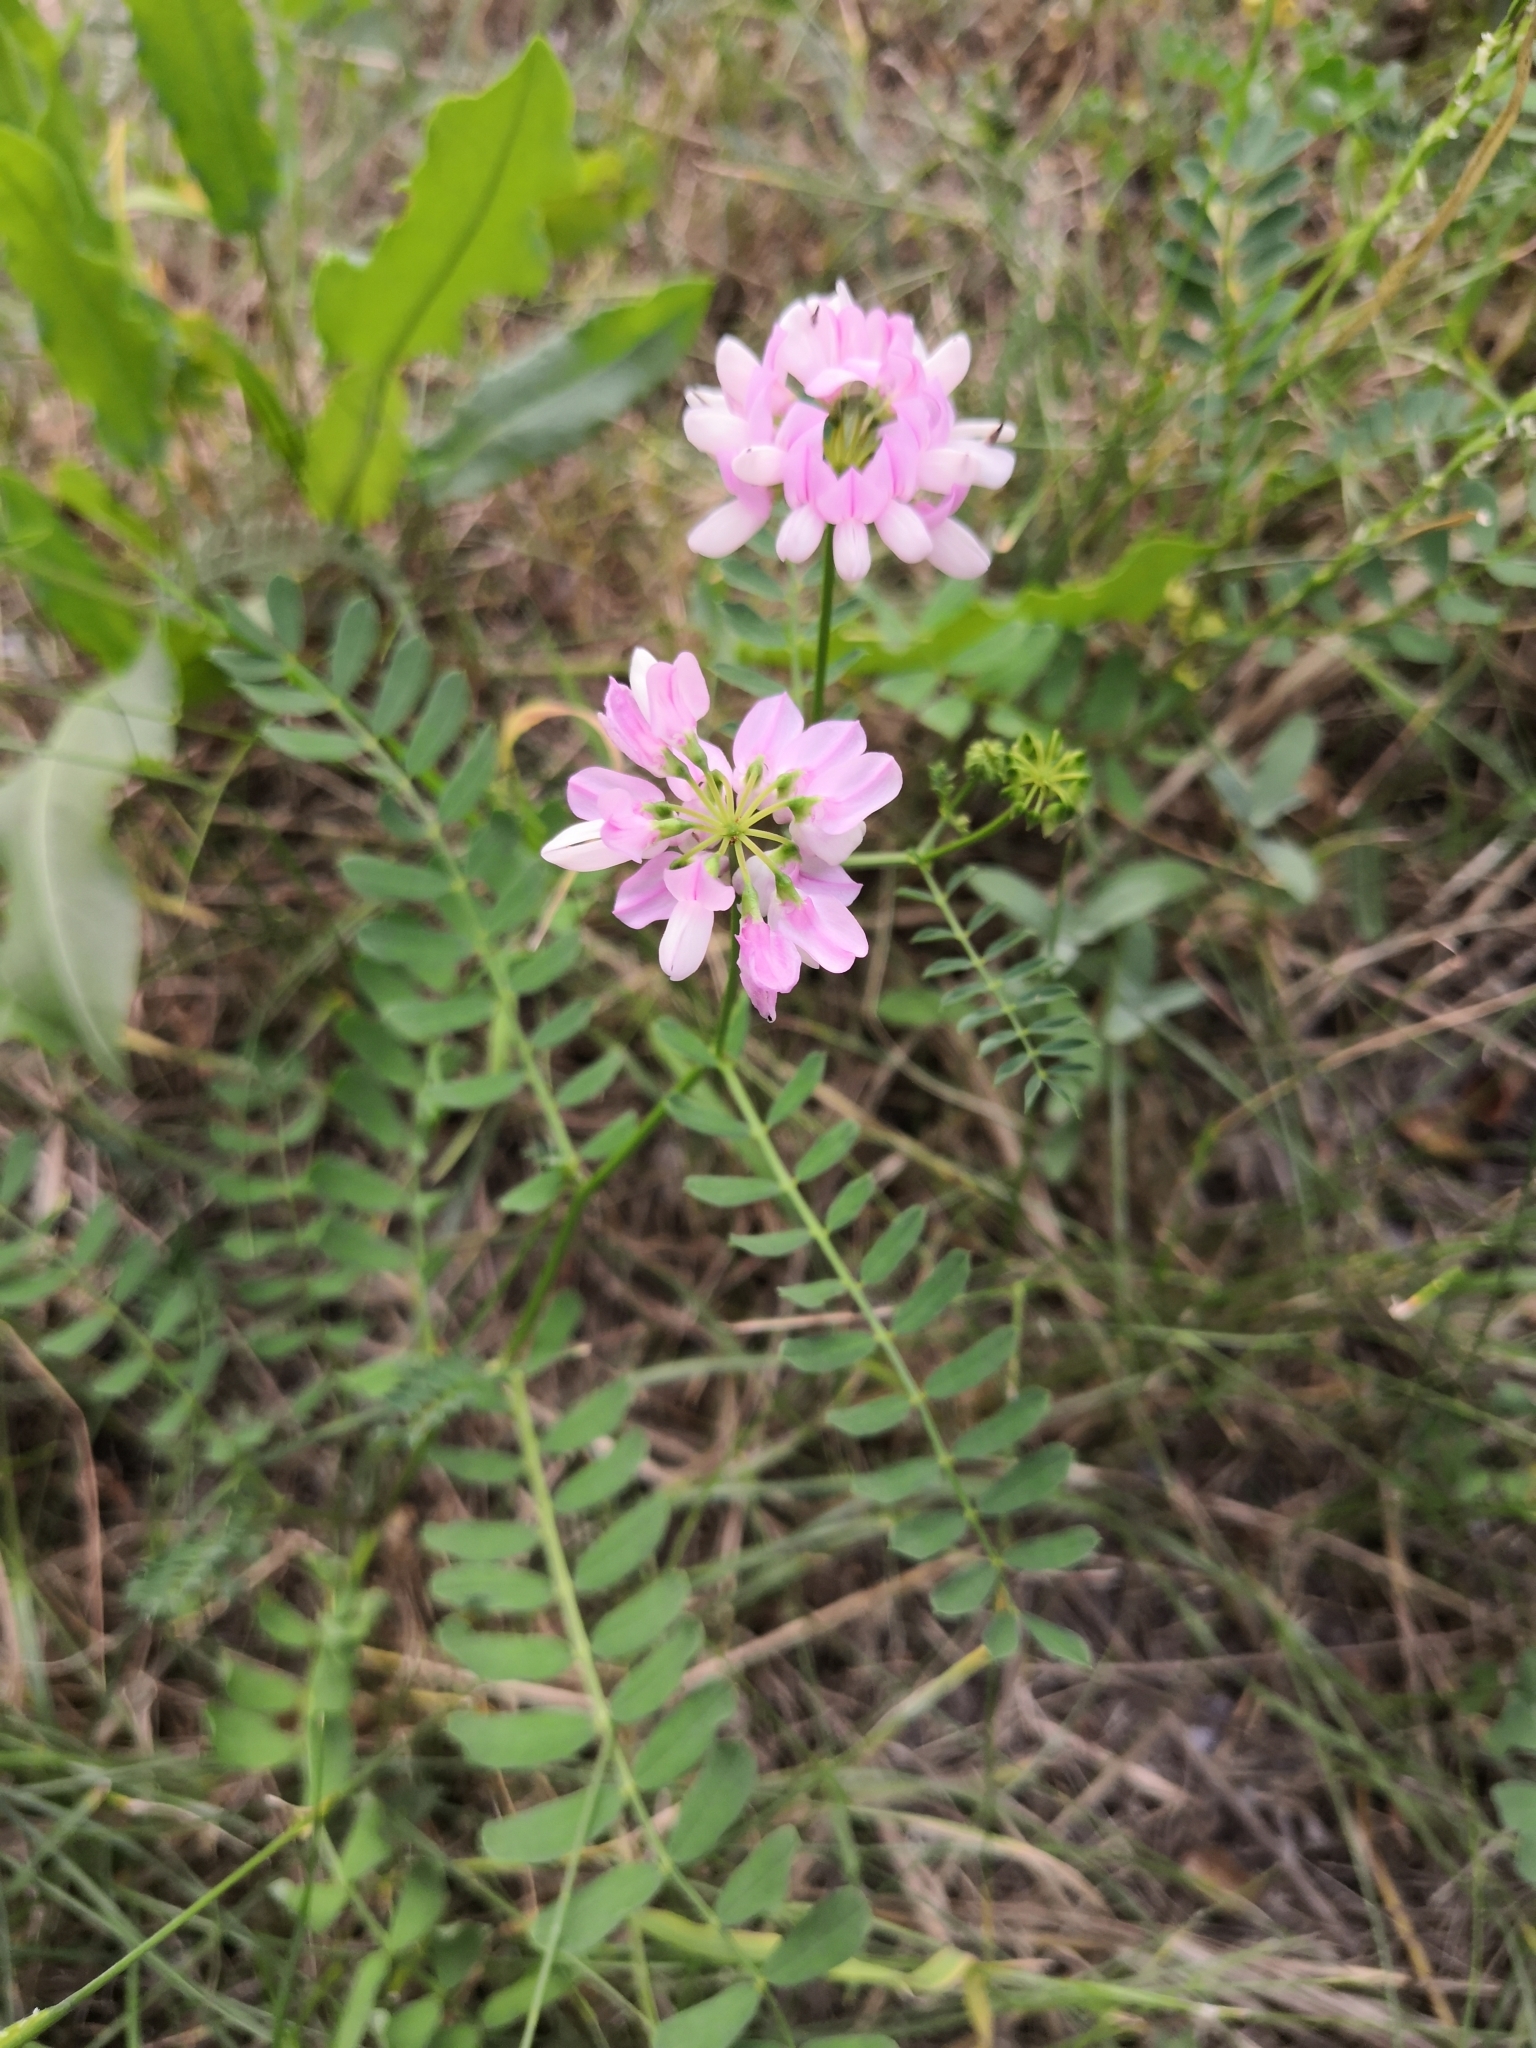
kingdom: Plantae
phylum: Tracheophyta
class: Magnoliopsida
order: Fabales
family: Fabaceae
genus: Coronilla
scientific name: Coronilla varia
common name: Crownvetch
